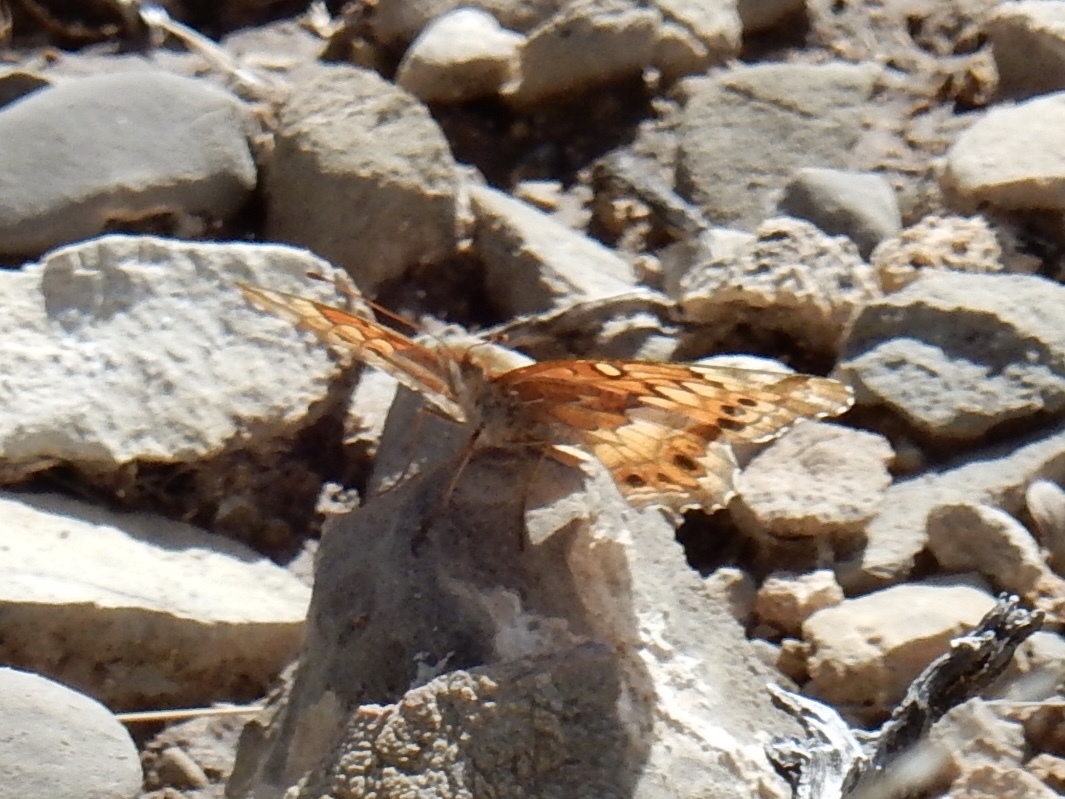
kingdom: Animalia
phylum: Arthropoda
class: Insecta
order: Lepidoptera
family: Nymphalidae
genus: Euptoieta
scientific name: Euptoieta claudia
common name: Variegated fritillary
